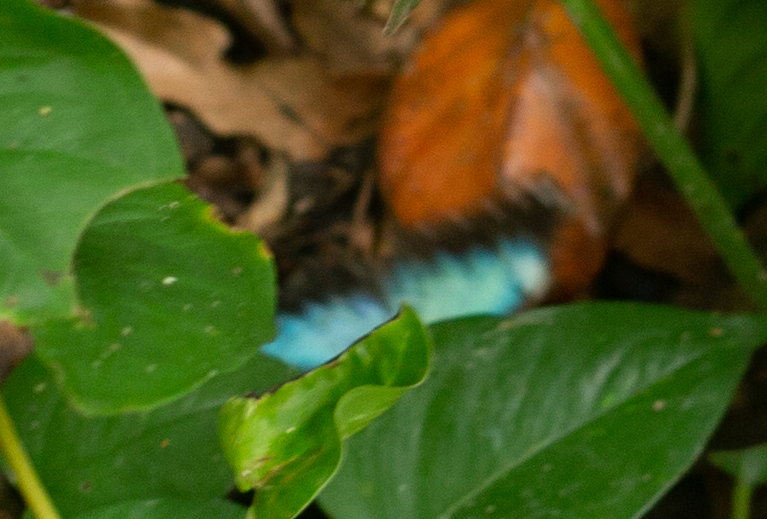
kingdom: Animalia
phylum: Arthropoda
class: Insecta
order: Lepidoptera
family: Nymphalidae
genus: Morpho
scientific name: Morpho helenor
